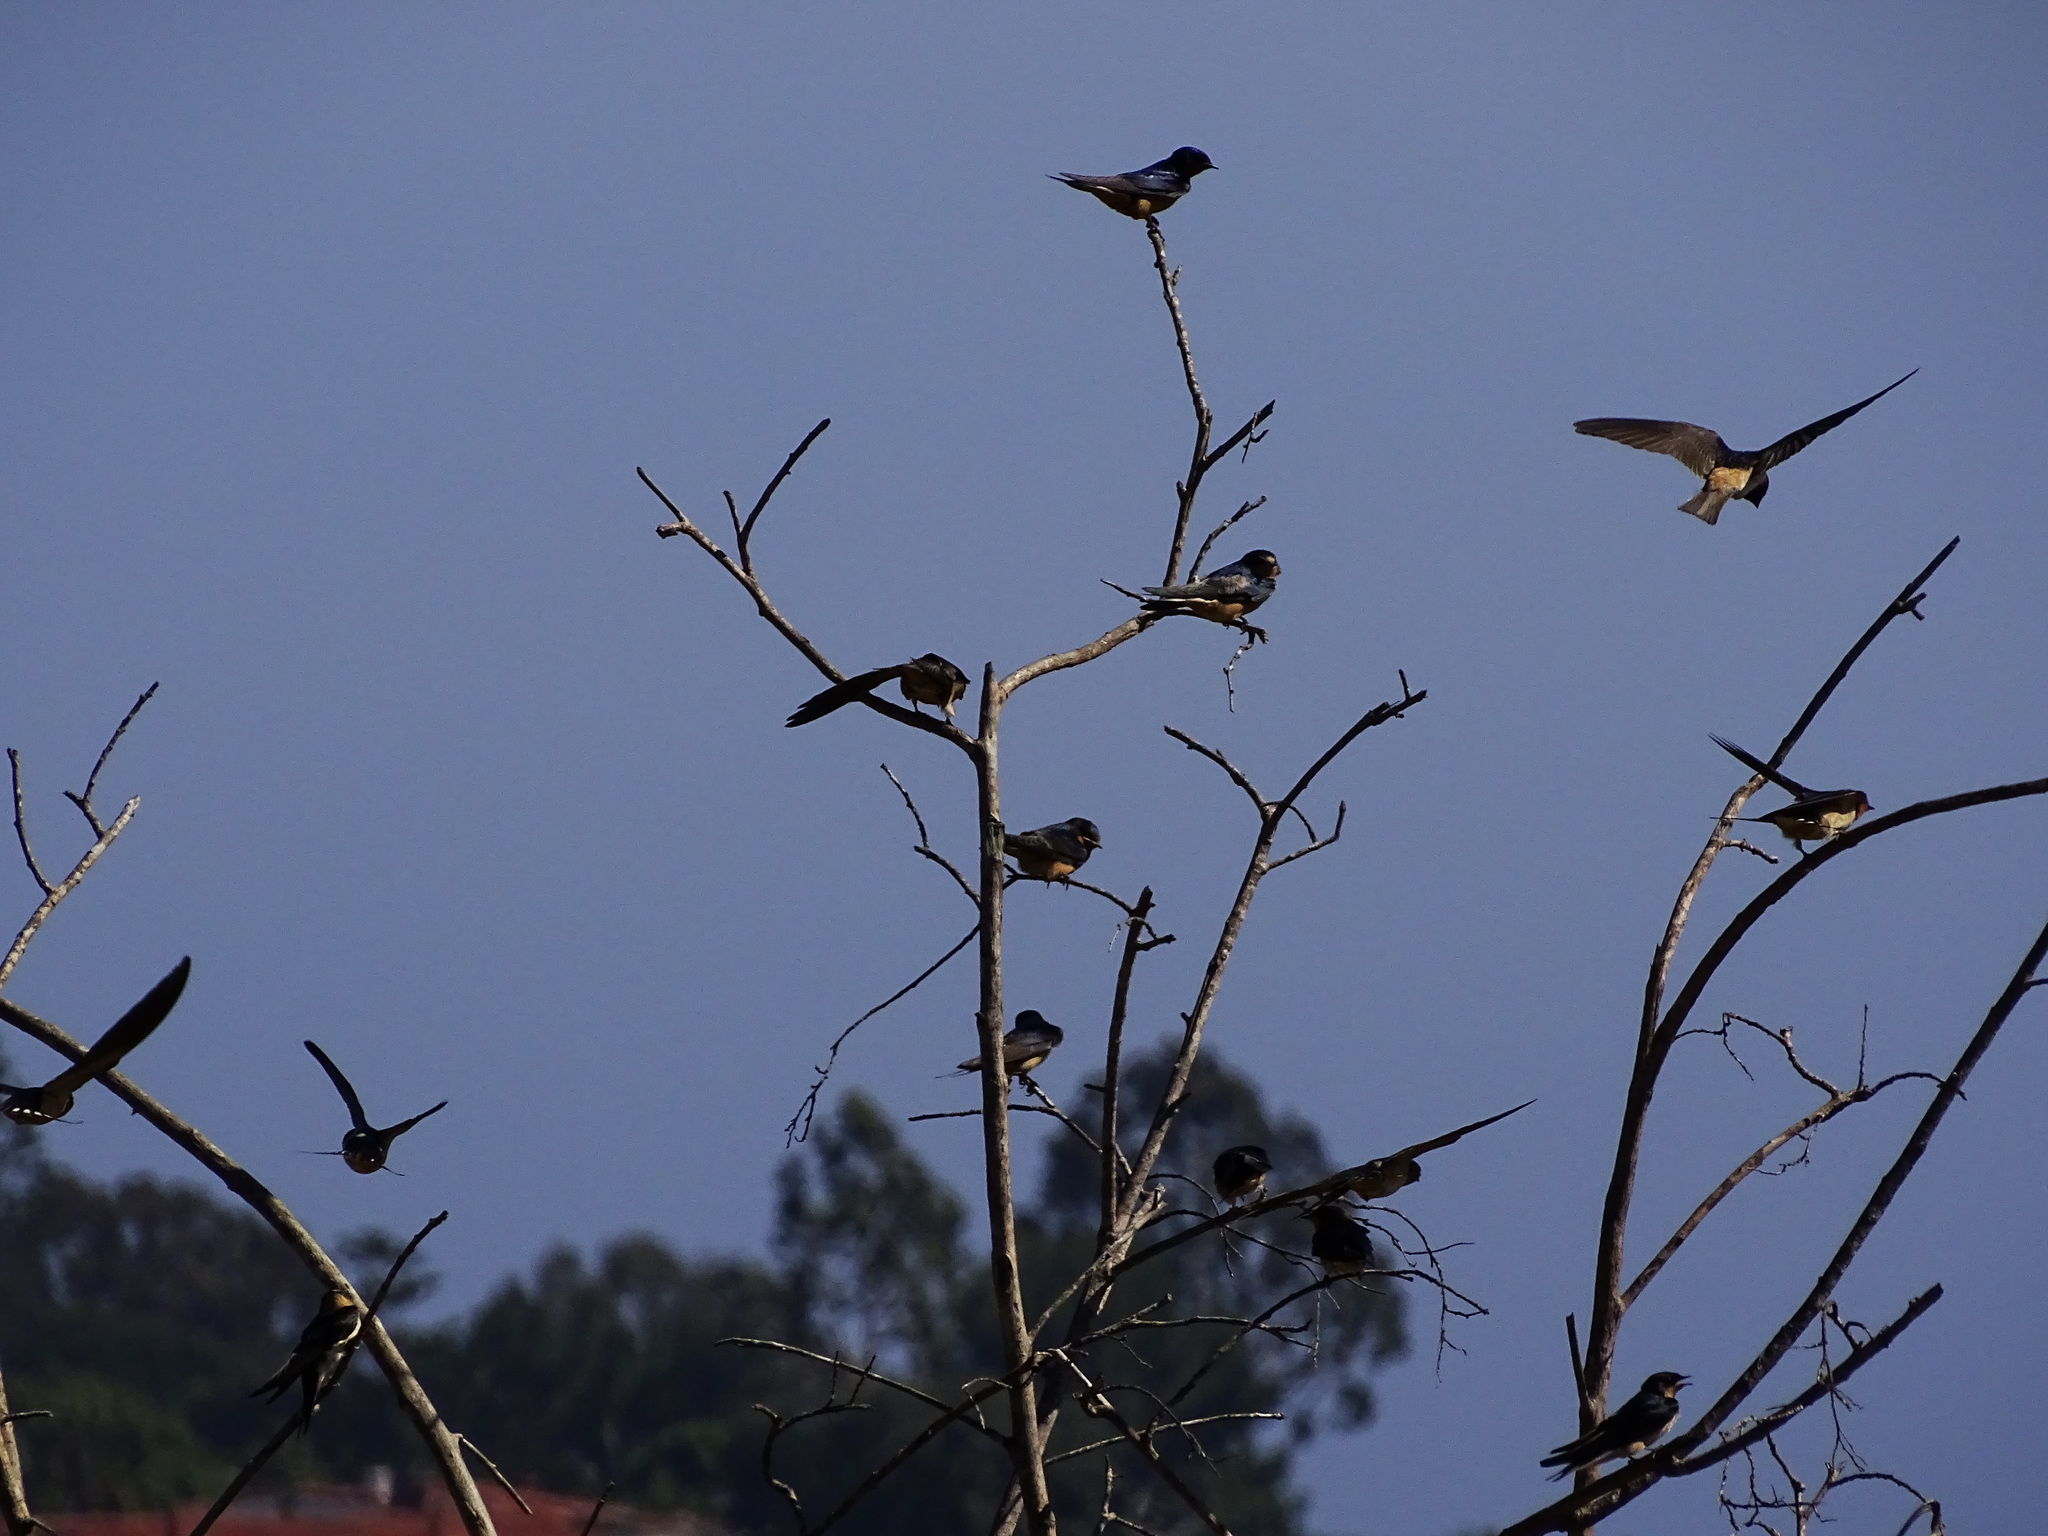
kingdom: Animalia
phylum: Chordata
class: Aves
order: Passeriformes
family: Hirundinidae
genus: Hirundo
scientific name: Hirundo rustica
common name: Barn swallow
